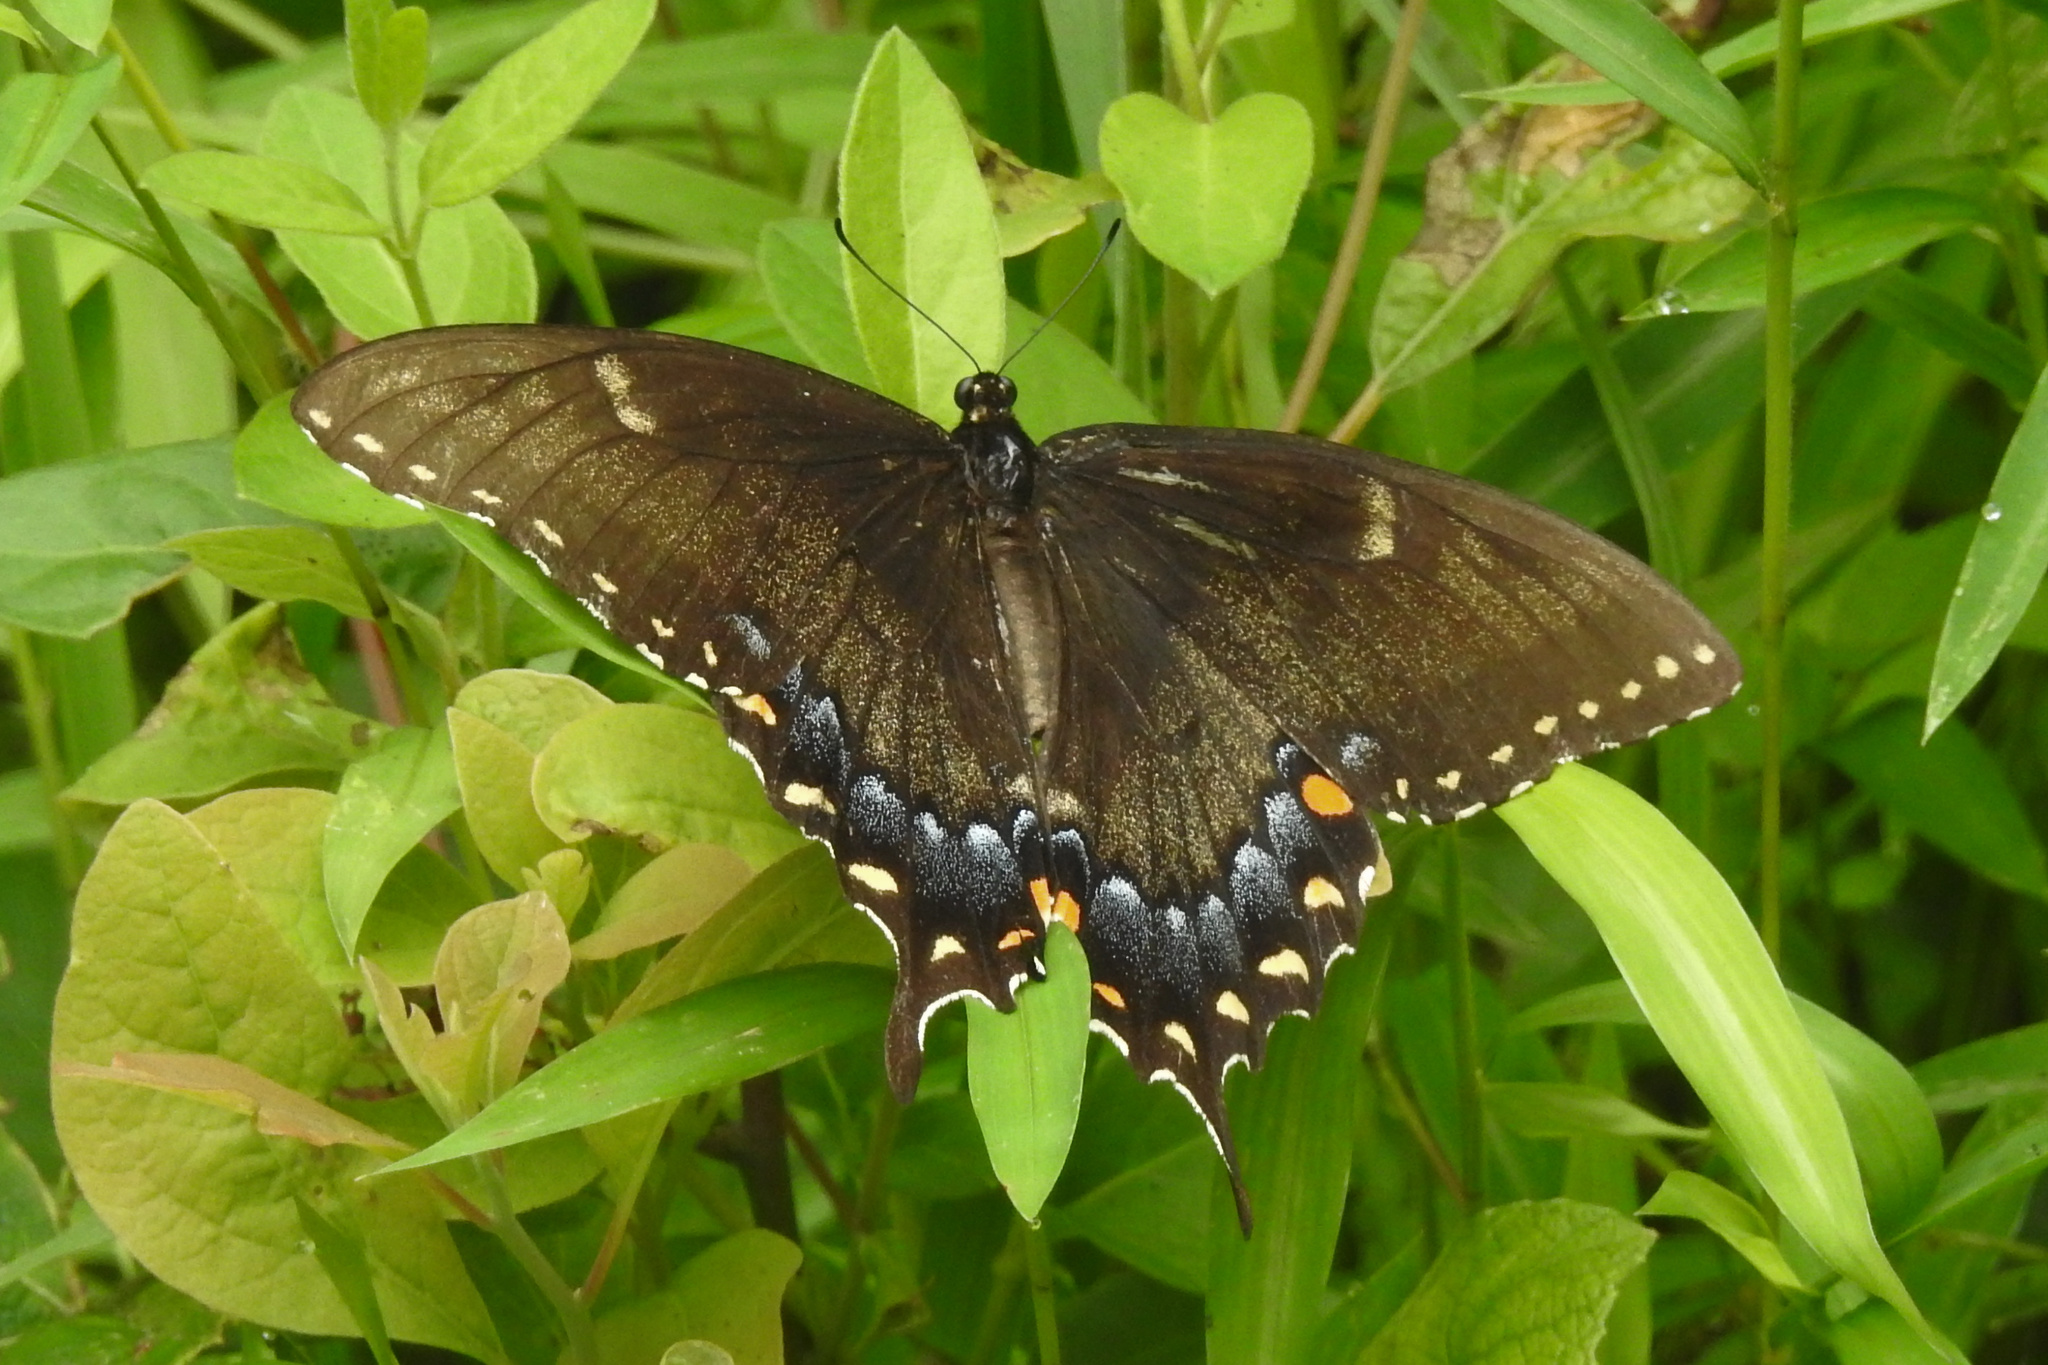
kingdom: Animalia
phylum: Arthropoda
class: Insecta
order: Lepidoptera
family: Papilionidae
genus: Papilio
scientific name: Papilio glaucus
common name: Tiger swallowtail
